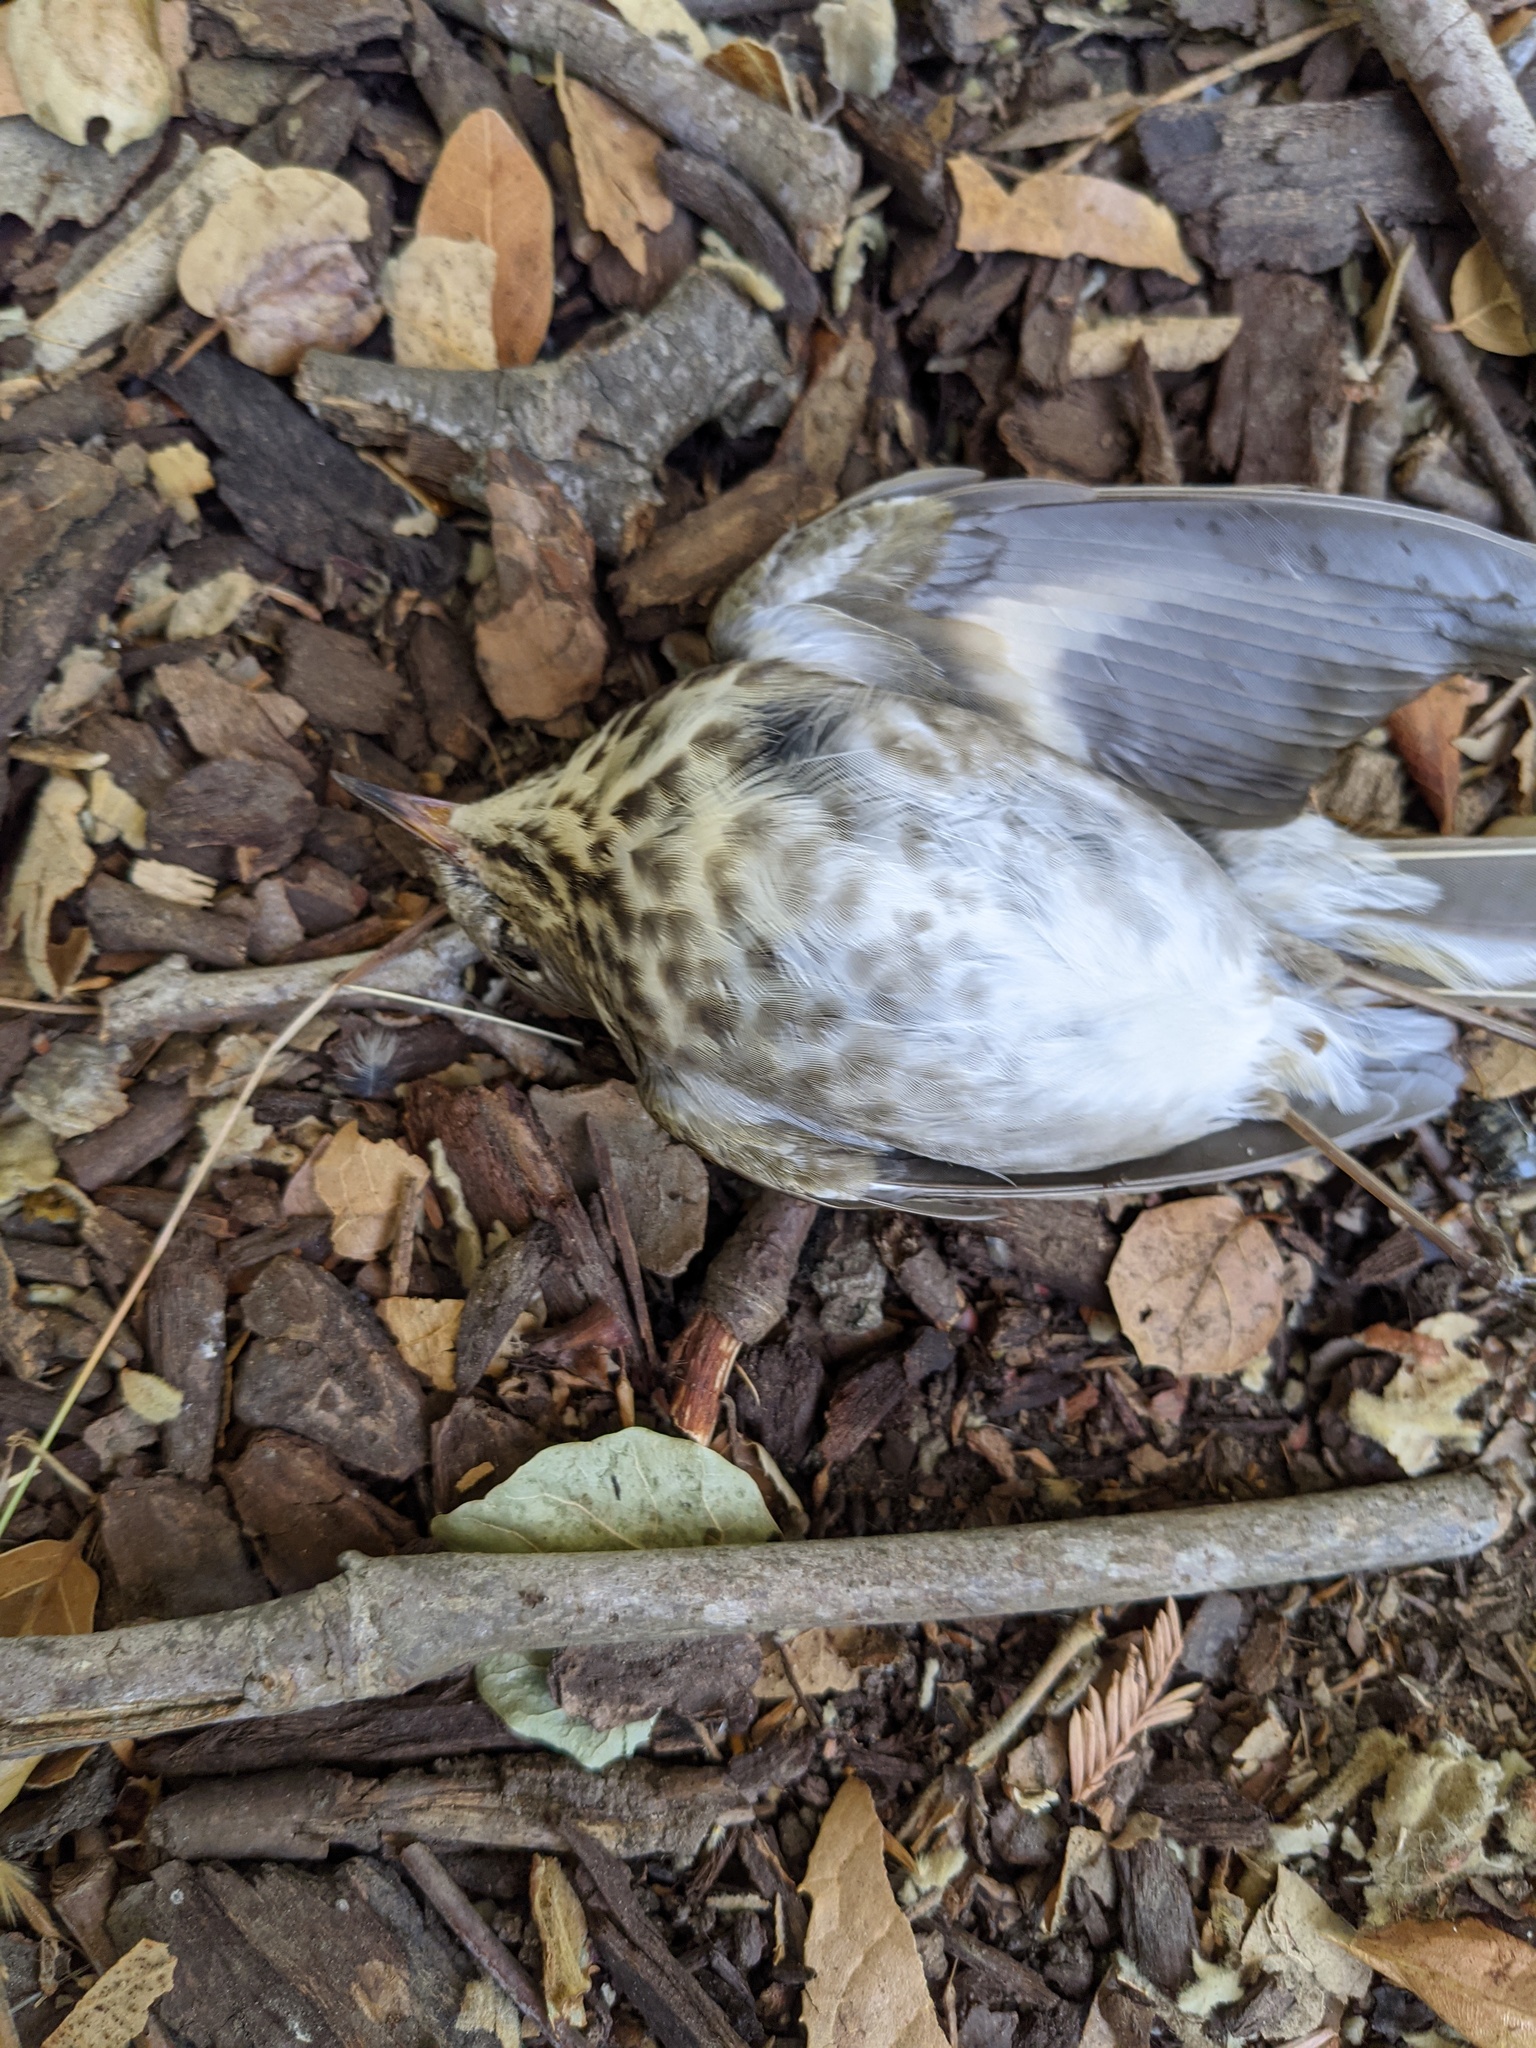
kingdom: Animalia
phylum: Chordata
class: Aves
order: Passeriformes
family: Turdidae
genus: Catharus
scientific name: Catharus guttatus
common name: Hermit thrush
